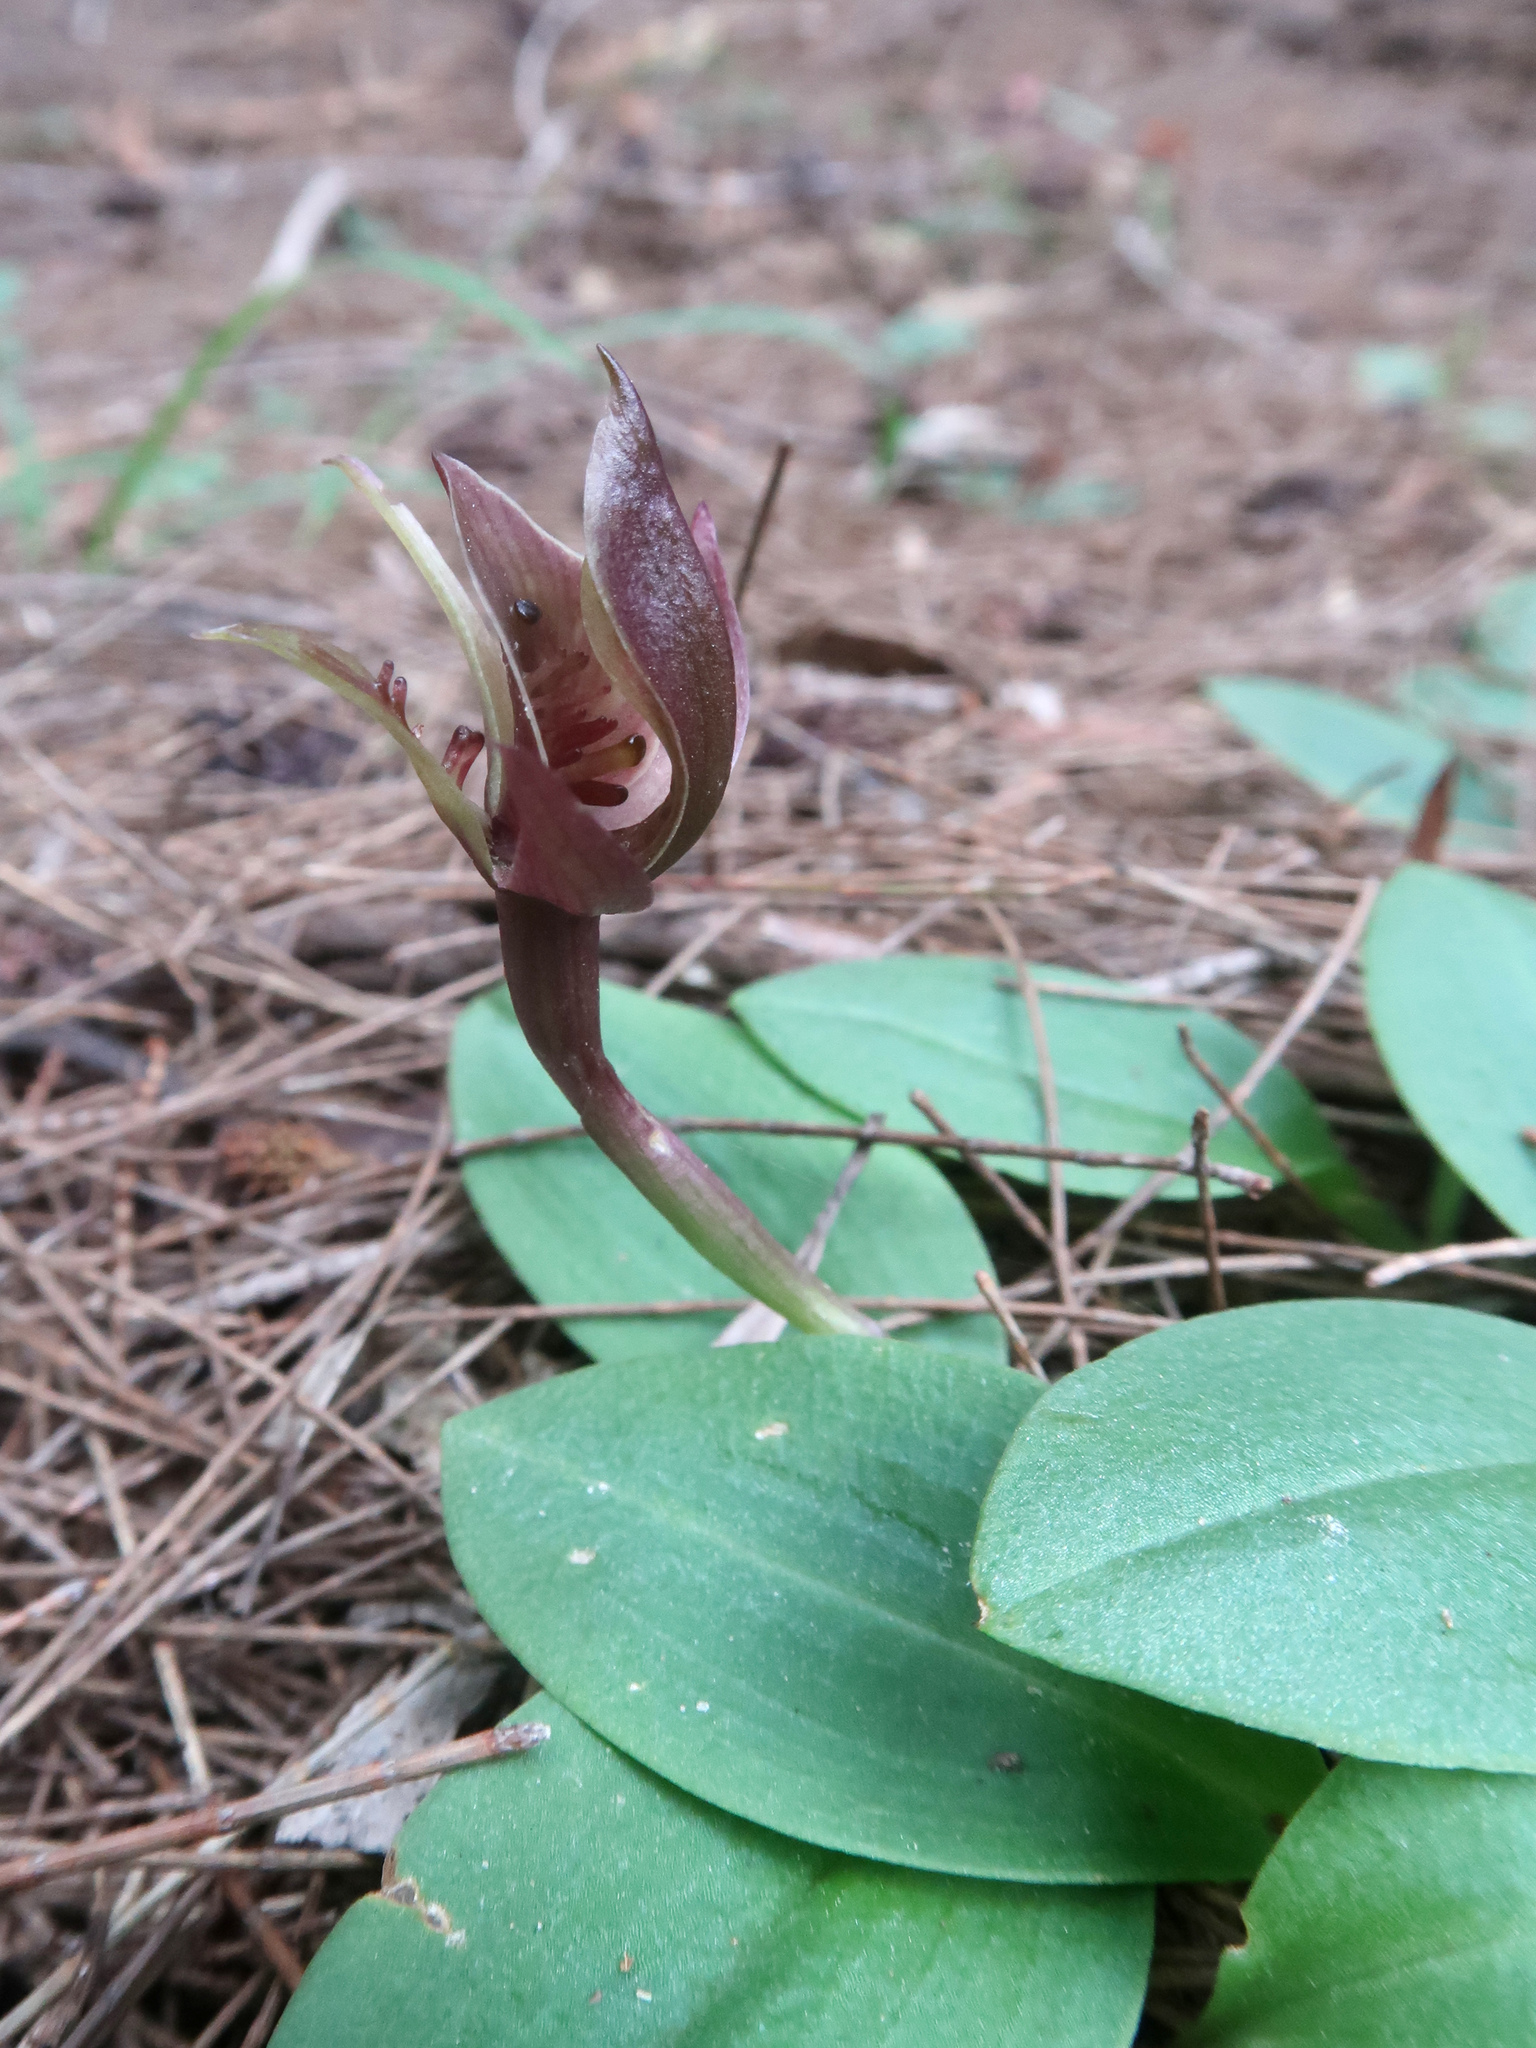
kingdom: Plantae
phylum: Tracheophyta
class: Liliopsida
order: Asparagales
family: Orchidaceae
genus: Chiloglottis
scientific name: Chiloglottis triceratops
